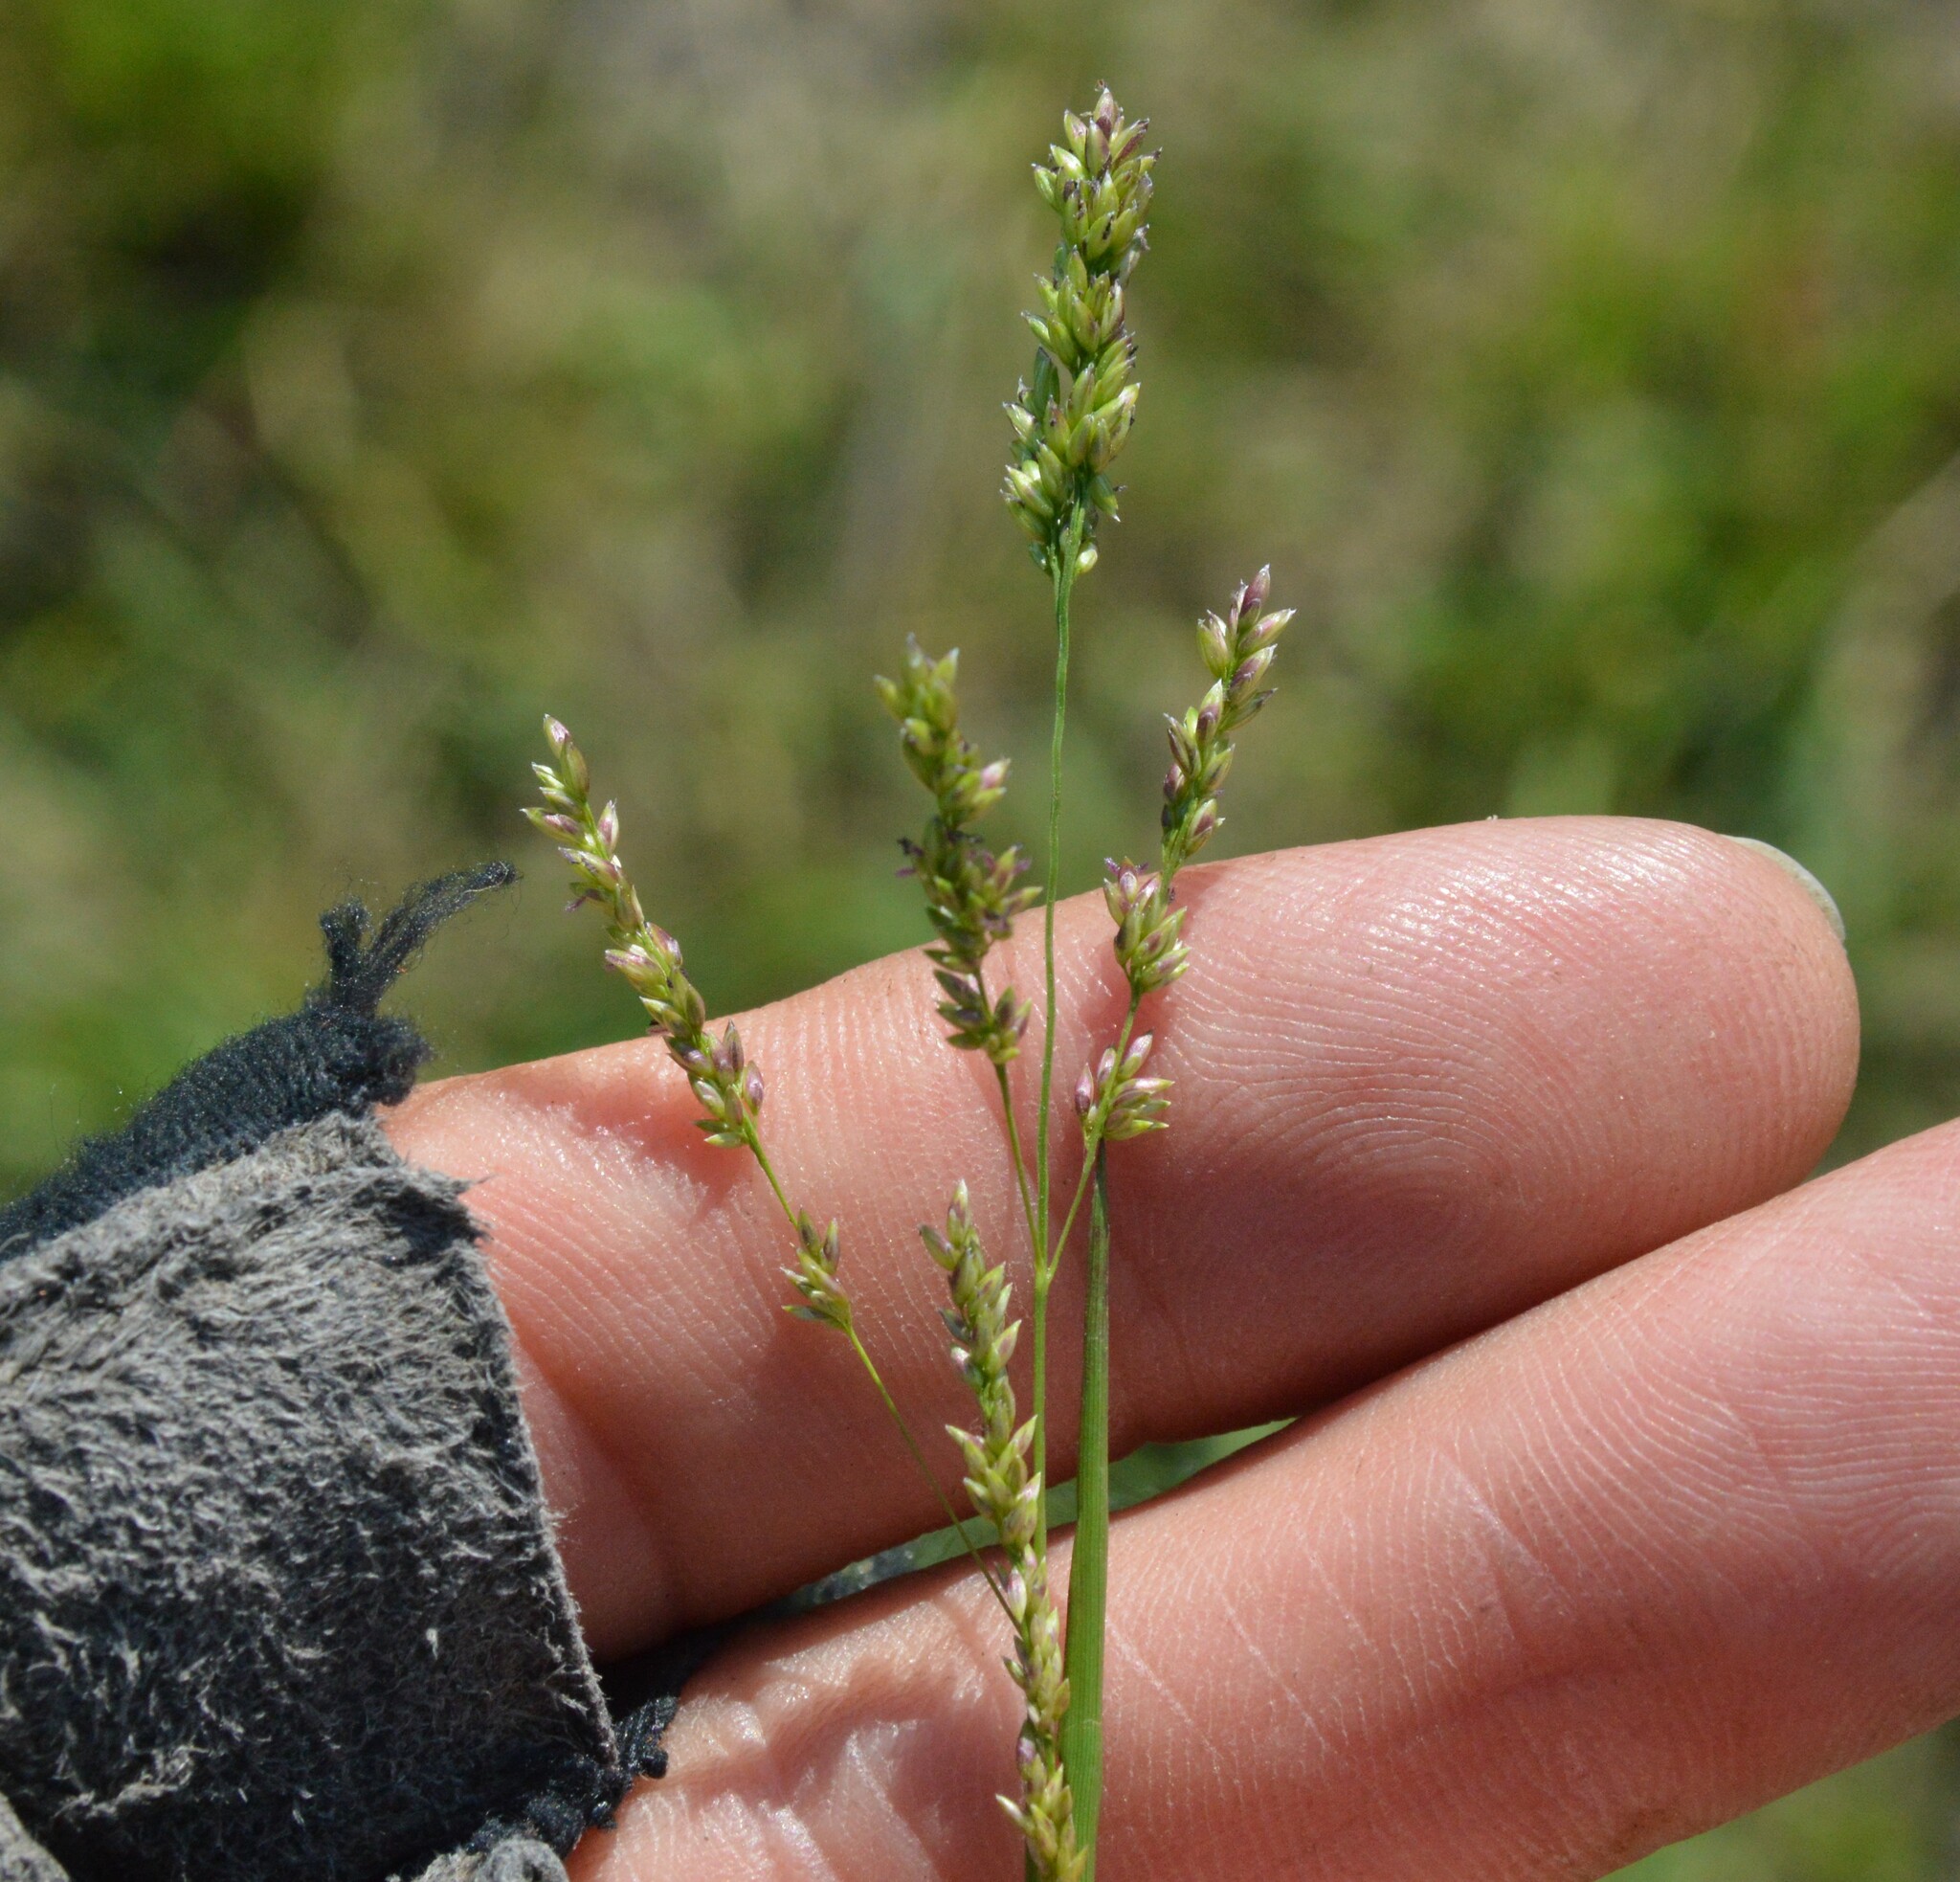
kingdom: Plantae
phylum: Tracheophyta
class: Liliopsida
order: Poales
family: Poaceae
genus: Steinchisma
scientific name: Steinchisma hians
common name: Gaping panic grass
